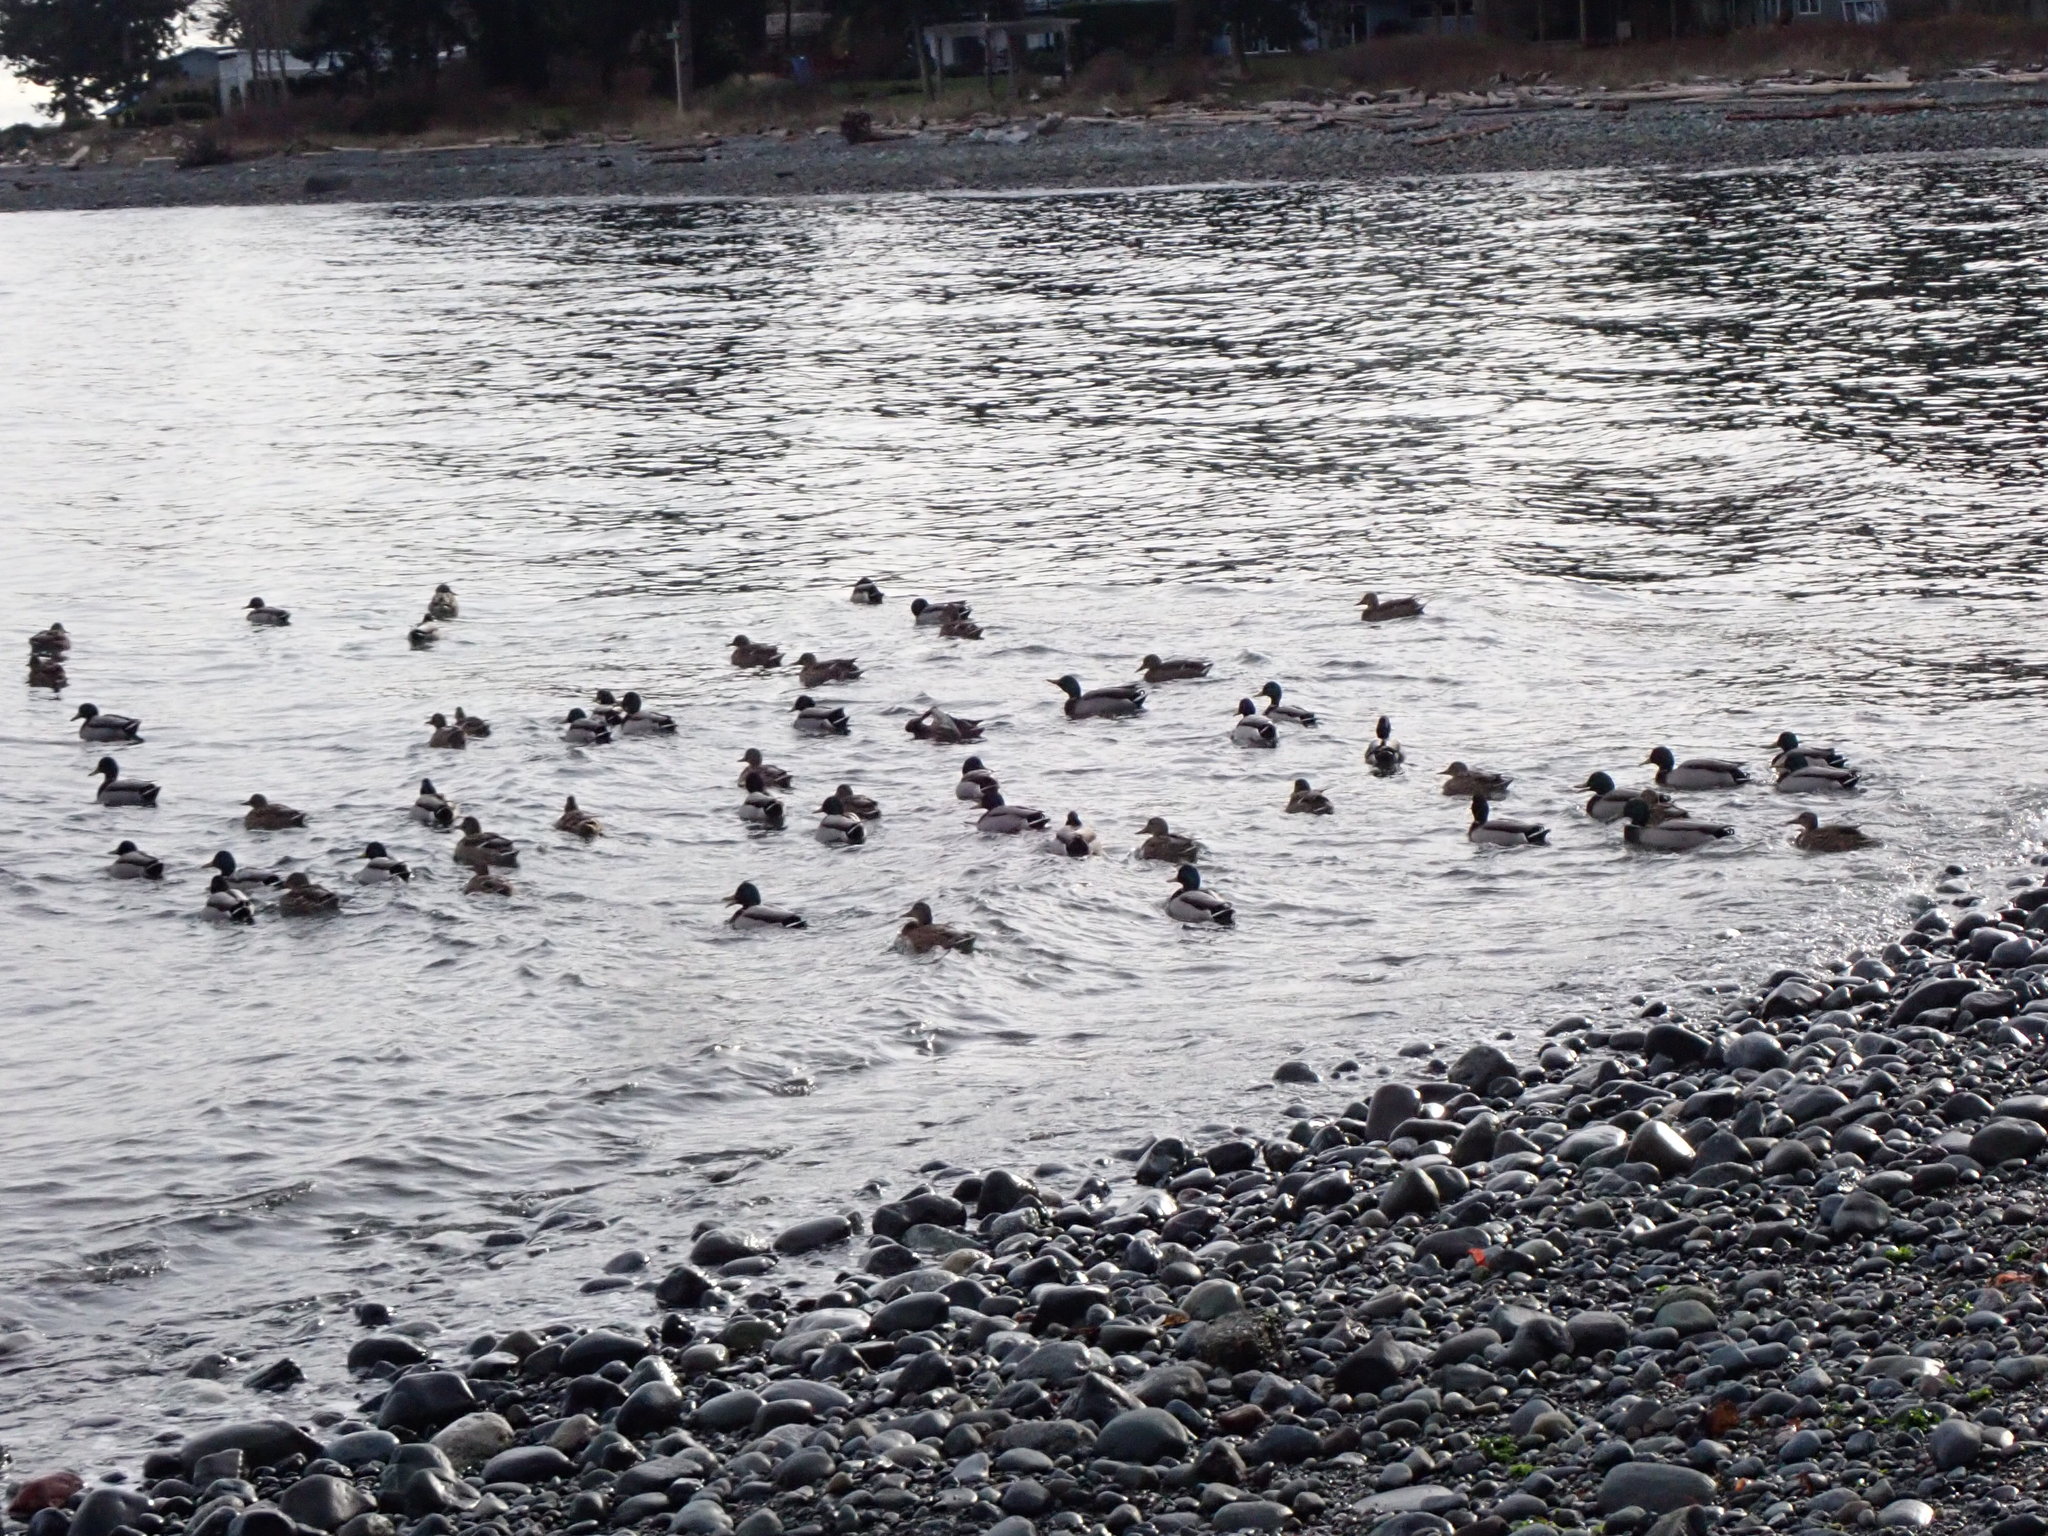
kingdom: Animalia
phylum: Chordata
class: Aves
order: Anseriformes
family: Anatidae
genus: Anas
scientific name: Anas platyrhynchos
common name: Mallard
